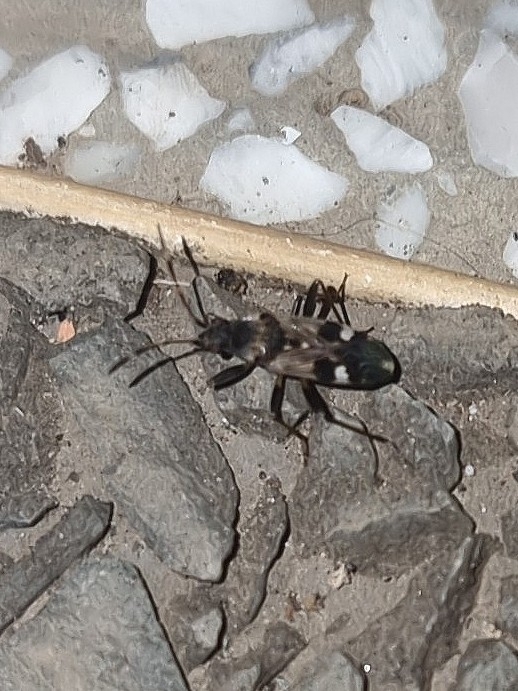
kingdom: Animalia
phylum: Arthropoda
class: Insecta
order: Hemiptera
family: Rhyparochromidae
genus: Beosus
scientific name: Beosus maritimus
